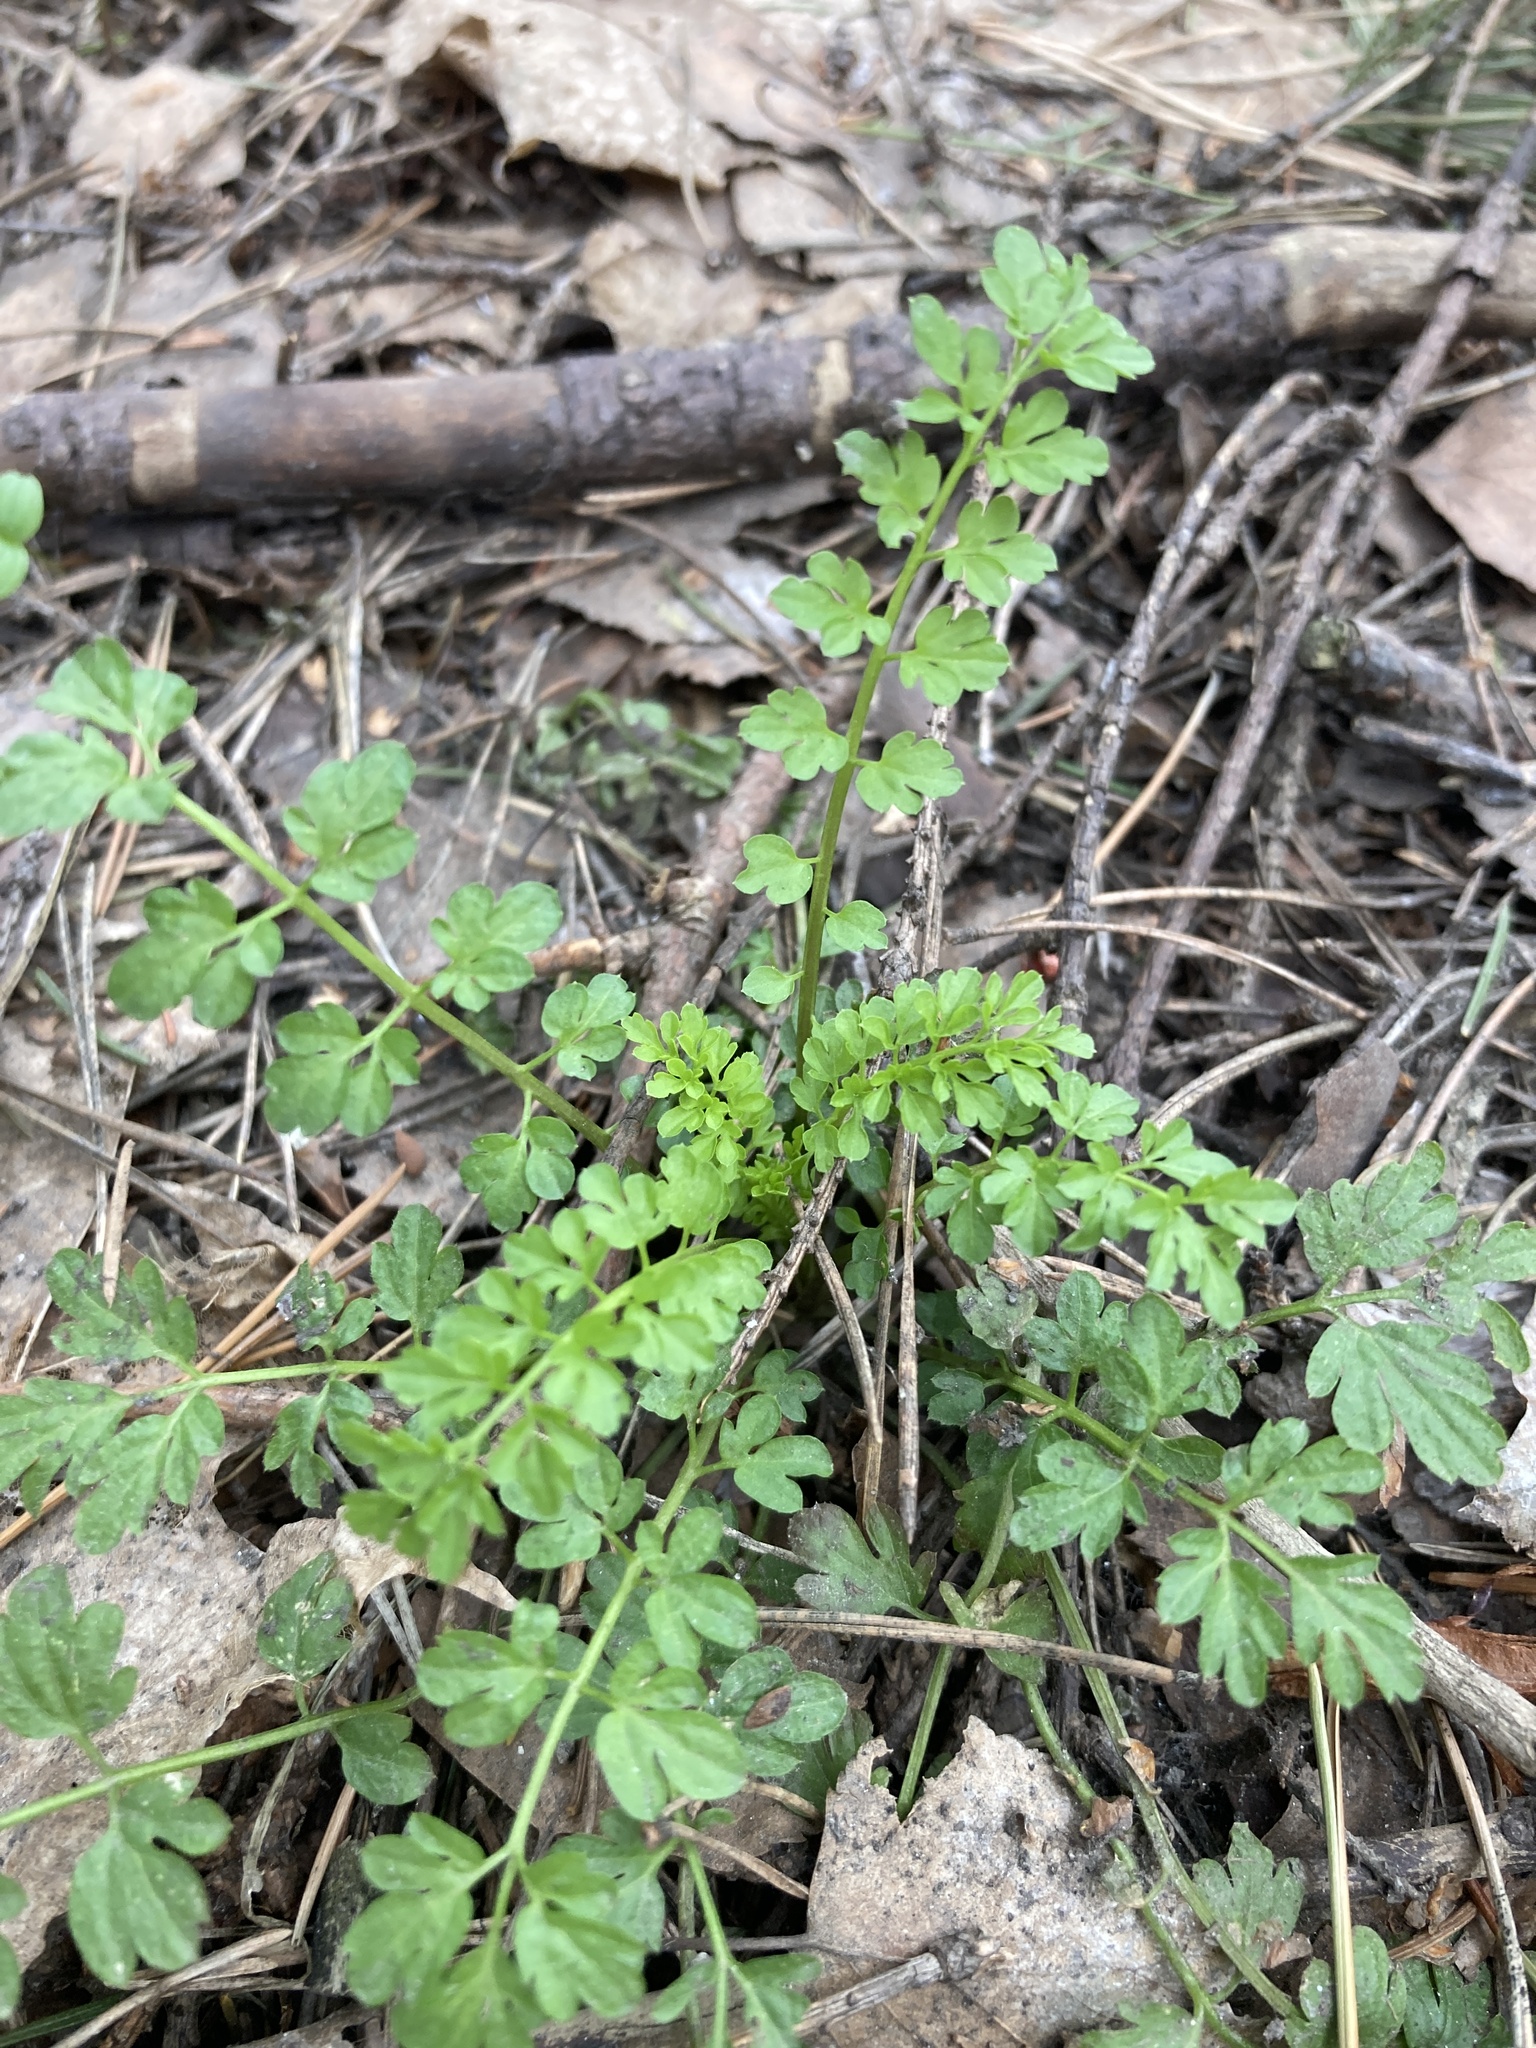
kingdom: Plantae
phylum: Tracheophyta
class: Magnoliopsida
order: Brassicales
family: Brassicaceae
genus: Cardamine
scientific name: Cardamine impatiens
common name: Narrow-leaved bitter-cress
